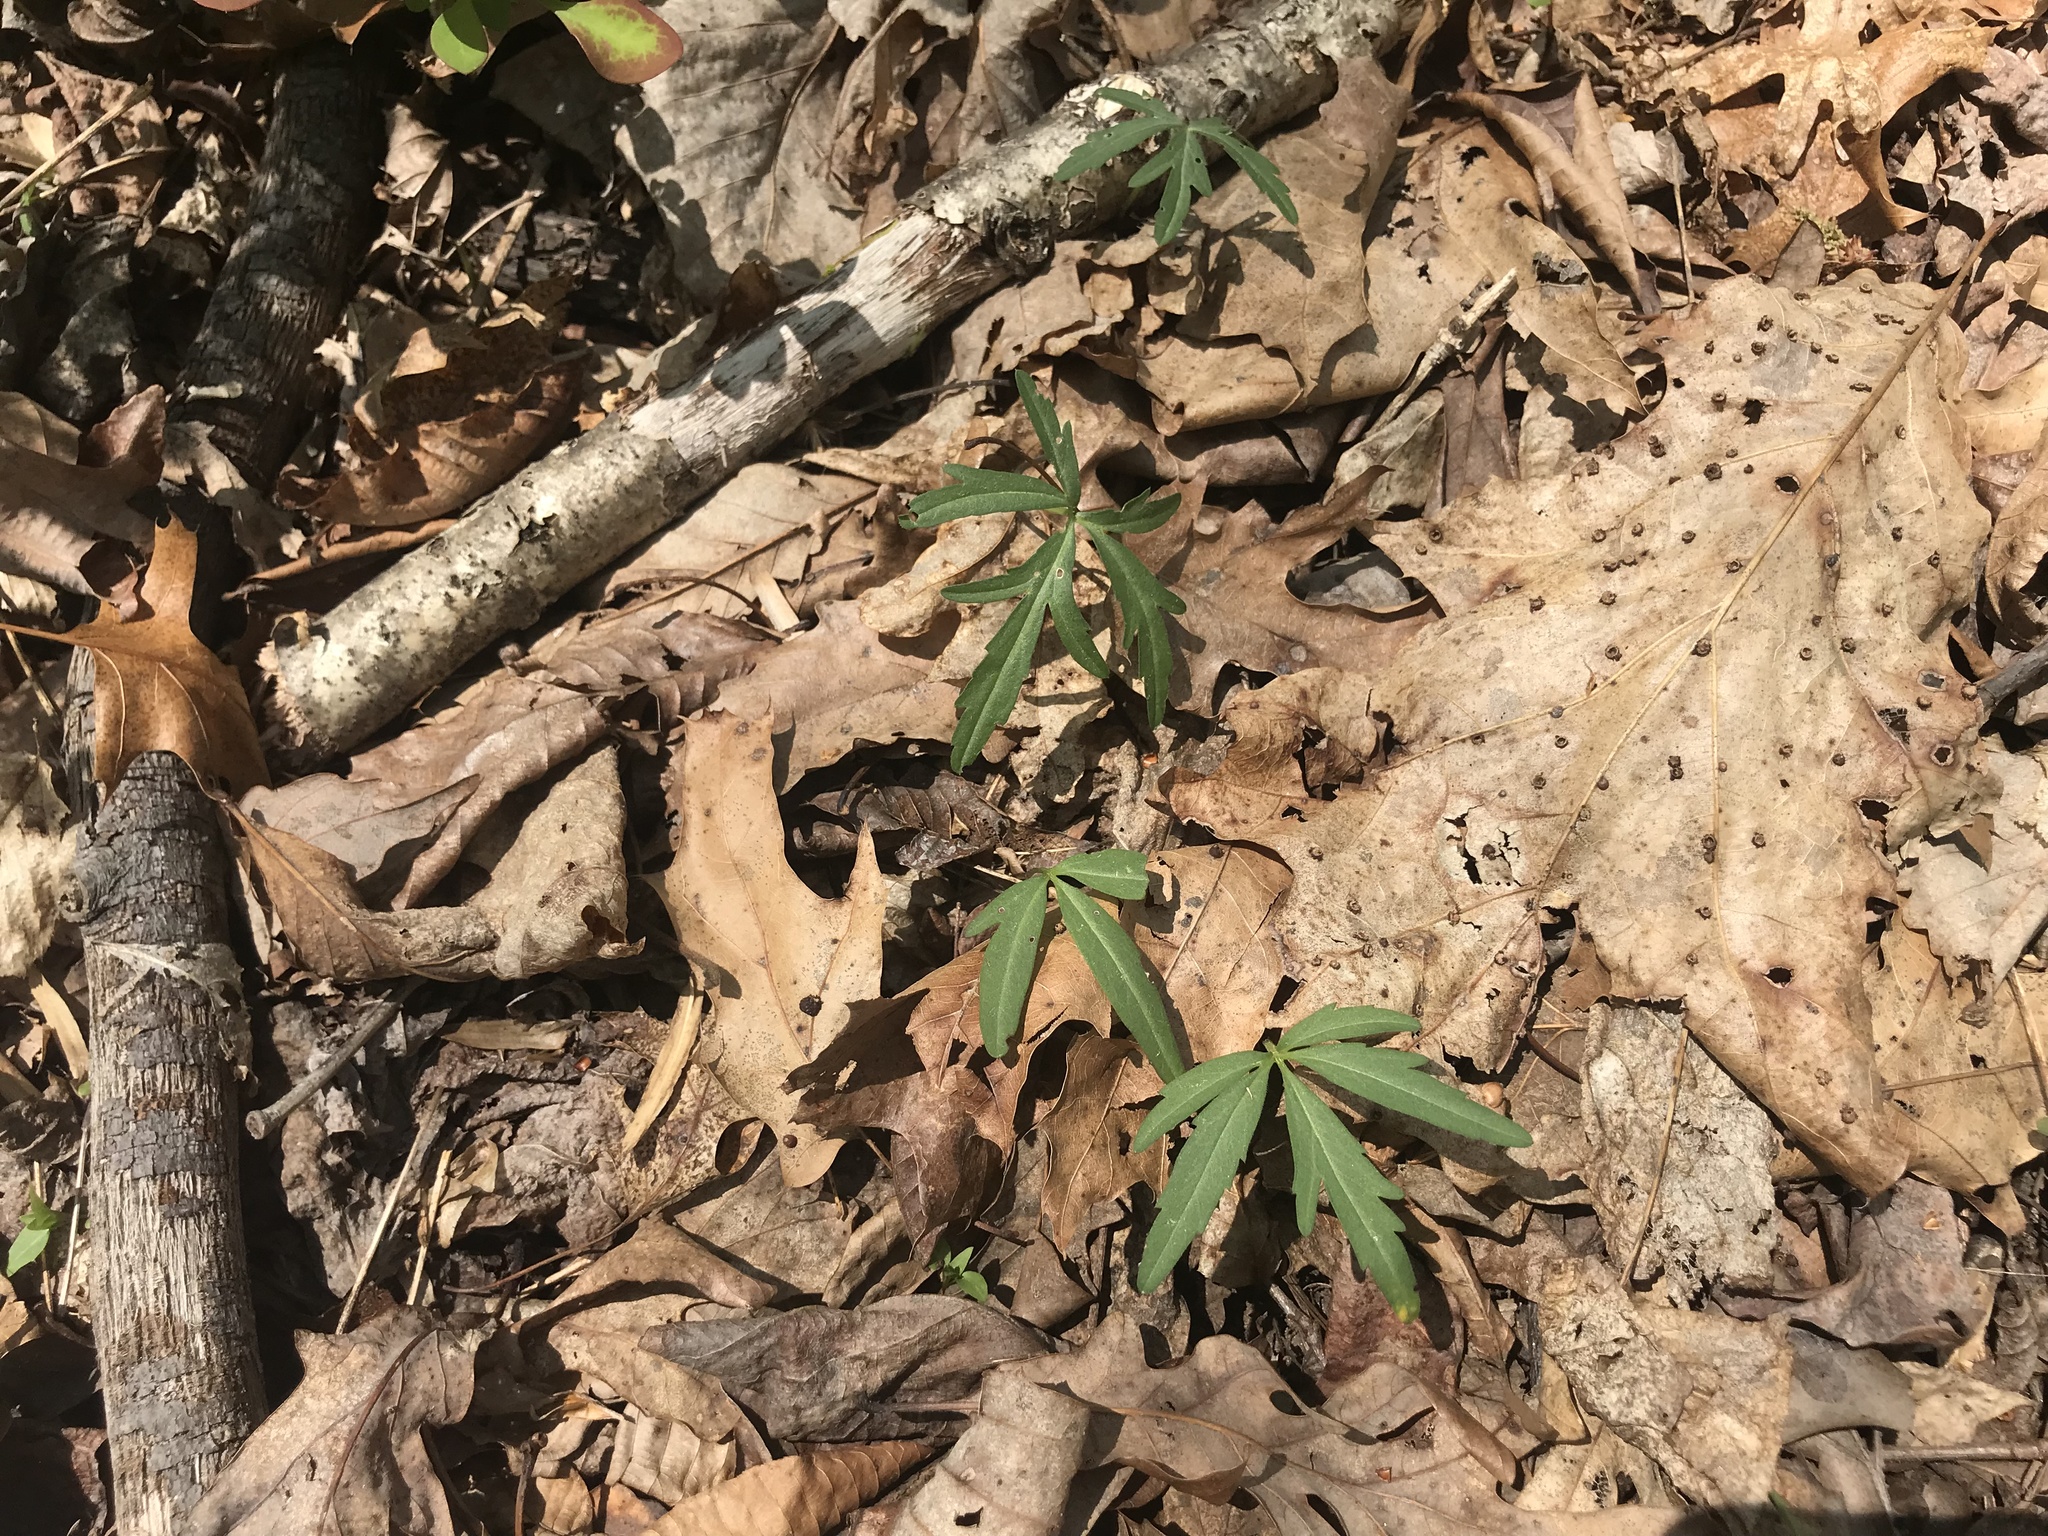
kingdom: Plantae
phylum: Tracheophyta
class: Magnoliopsida
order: Brassicales
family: Brassicaceae
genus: Cardamine
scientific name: Cardamine concatenata
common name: Cut-leaf toothcup
